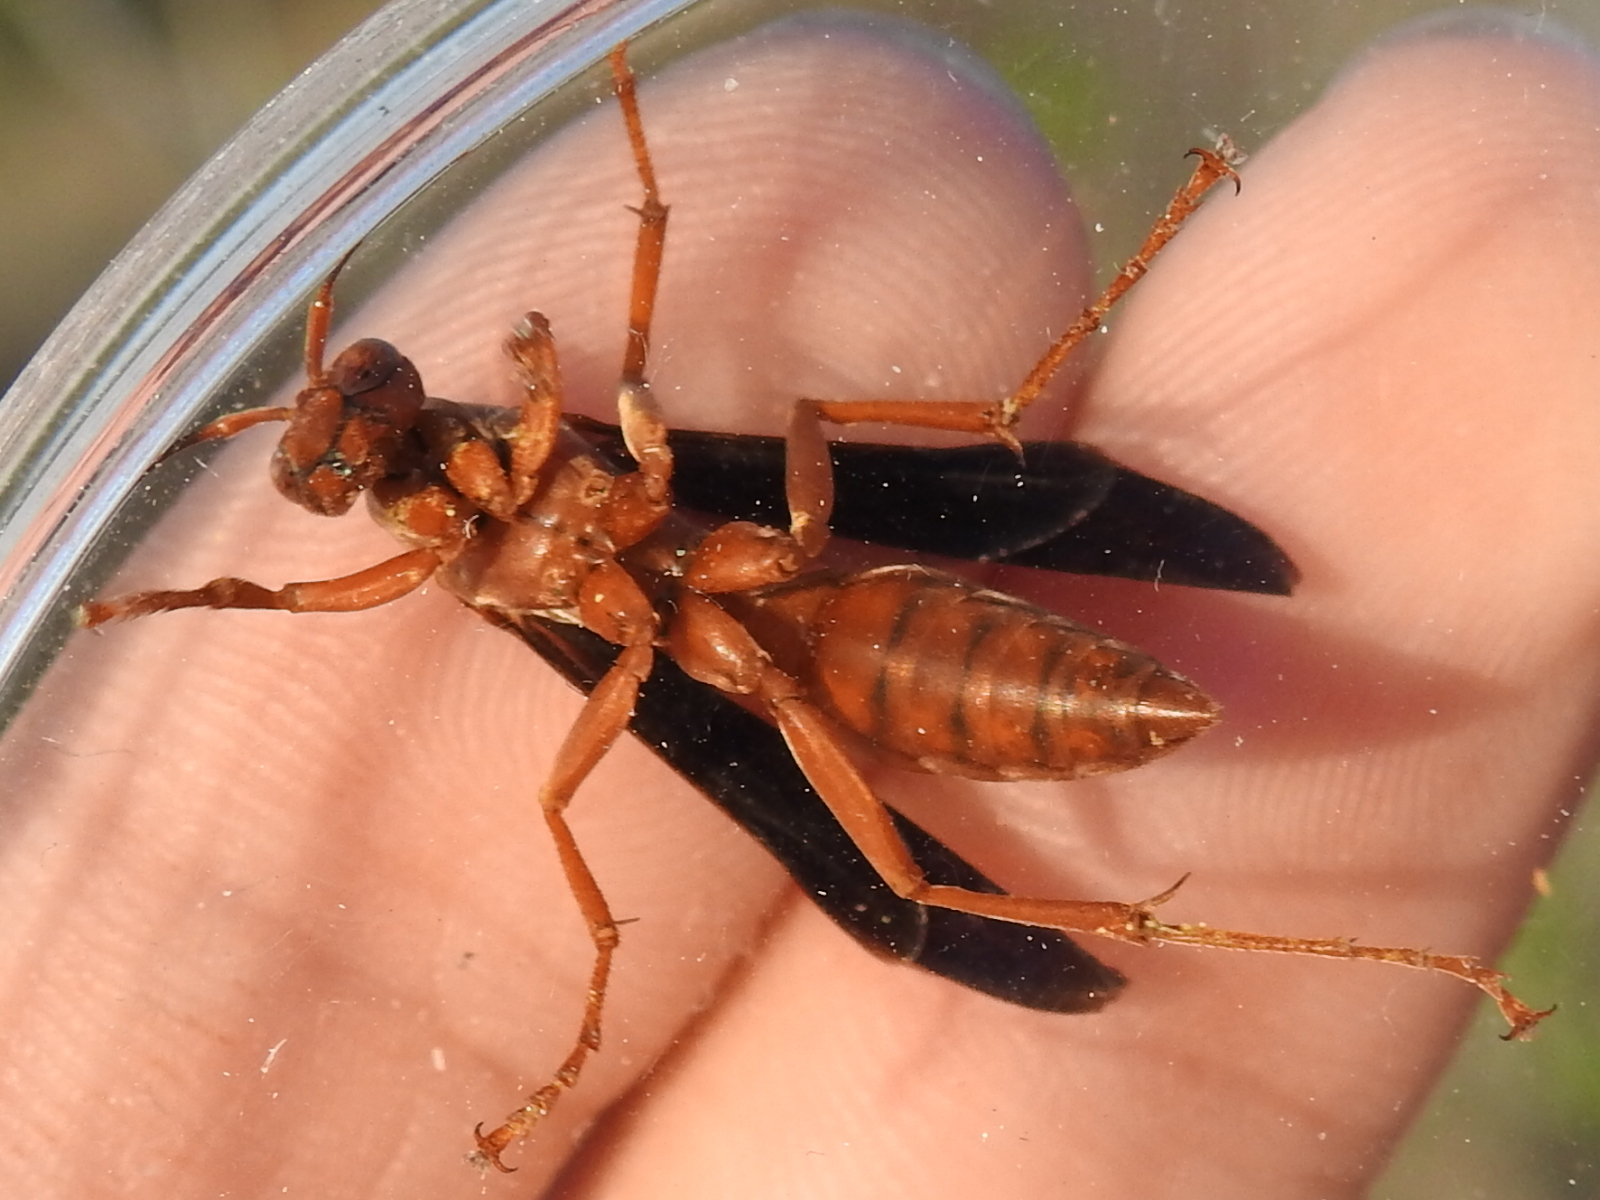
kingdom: Animalia
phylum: Arthropoda
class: Insecta
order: Hymenoptera
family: Eumenidae
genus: Polistes
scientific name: Polistes carolina
